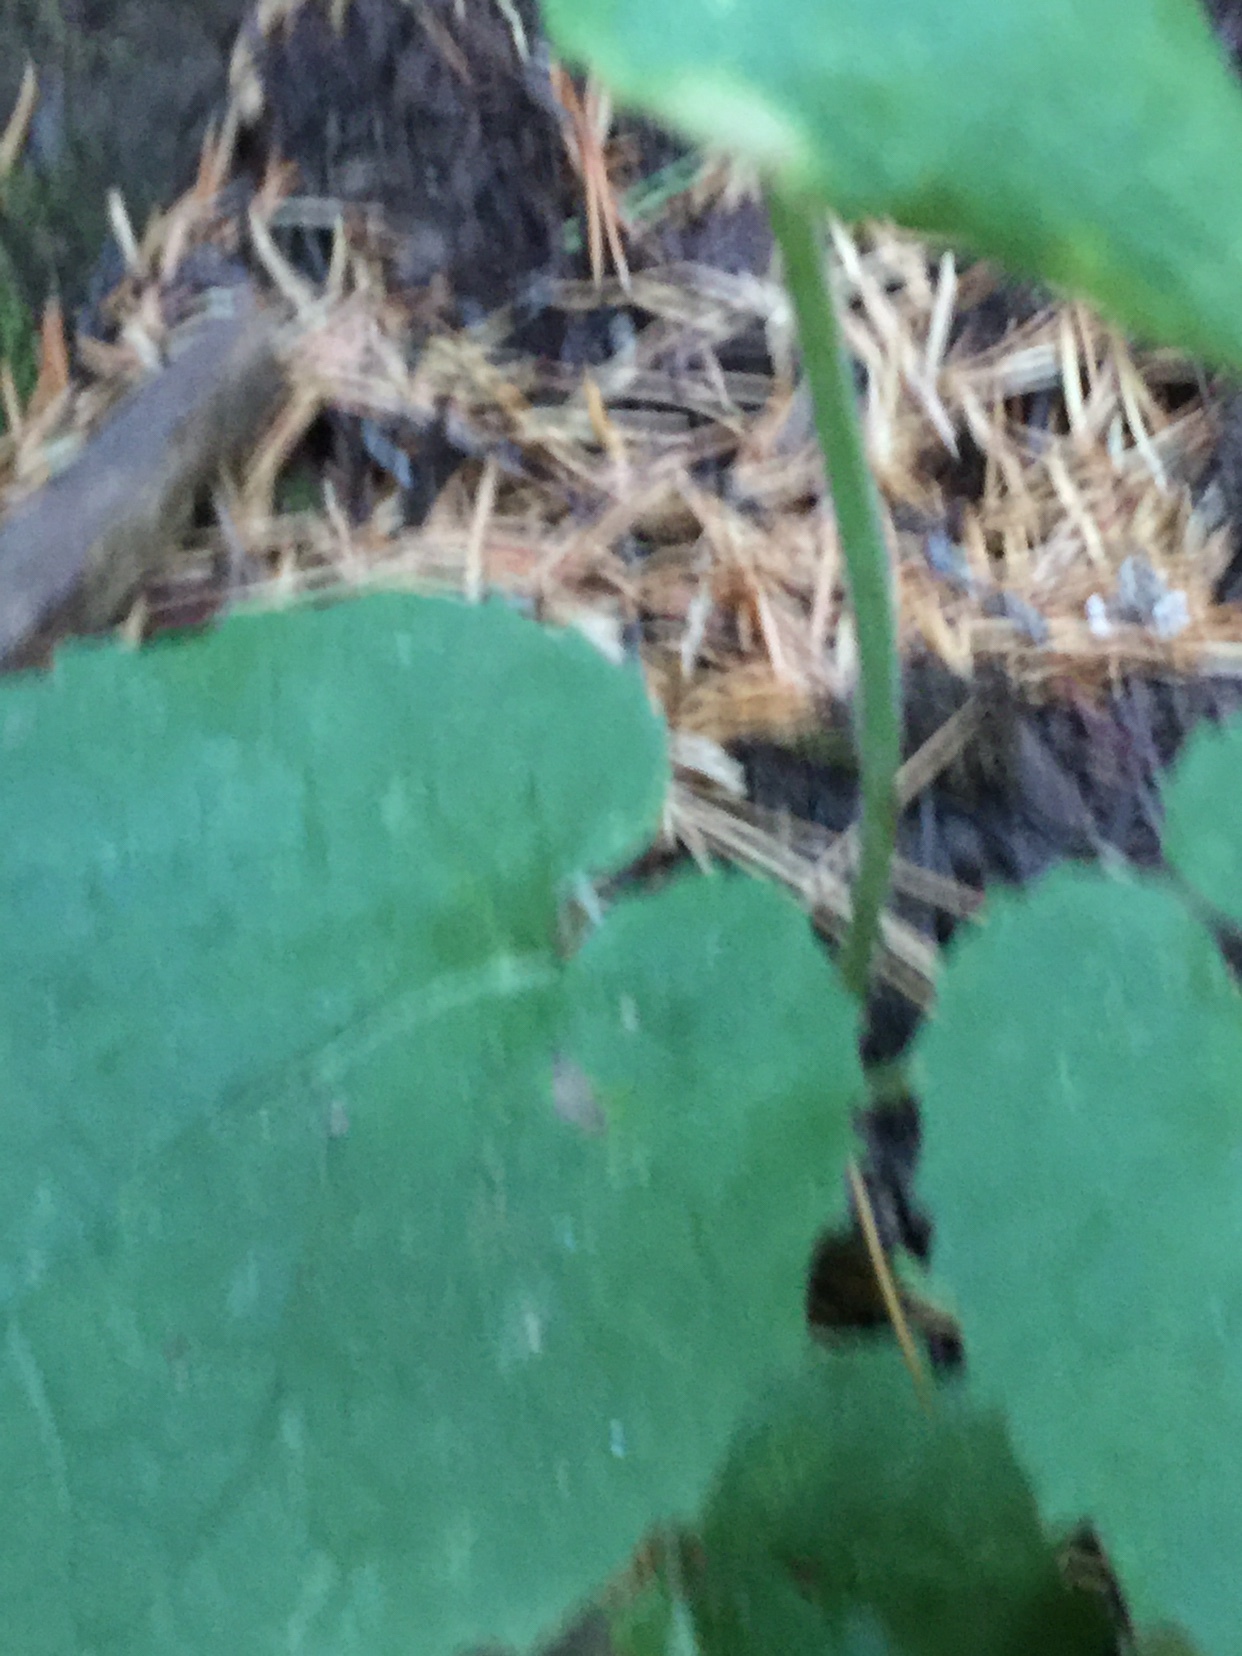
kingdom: Plantae
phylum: Tracheophyta
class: Magnoliopsida
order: Asterales
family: Asteraceae
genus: Arnica
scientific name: Arnica cordifolia
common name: Heart-leaf arnica
